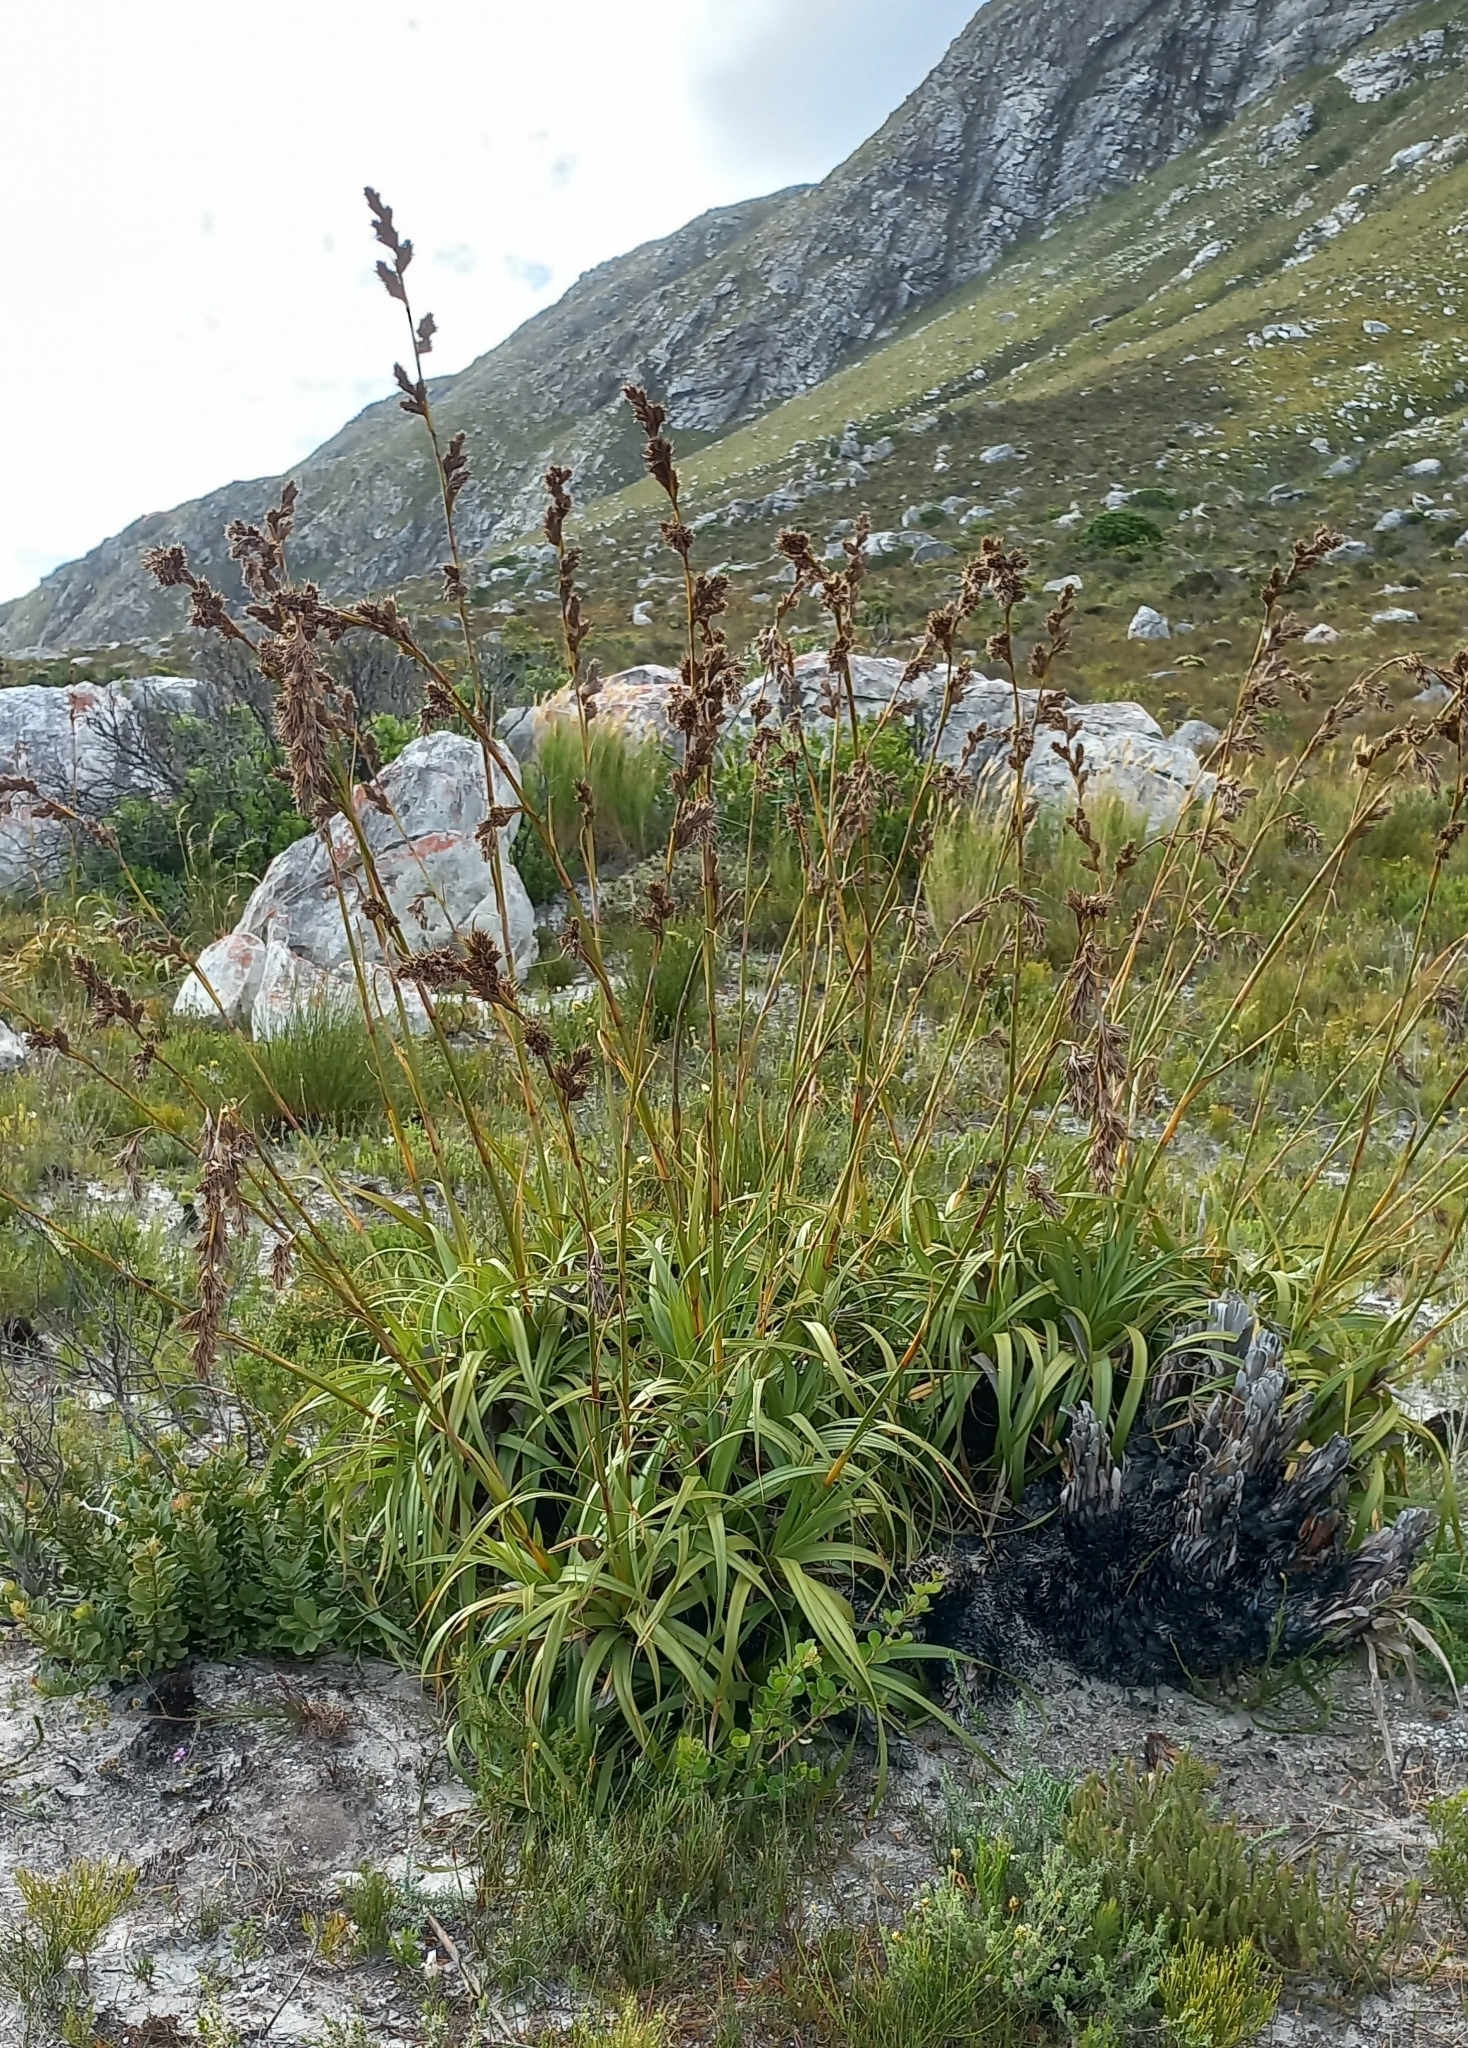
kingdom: Plantae
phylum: Tracheophyta
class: Liliopsida
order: Poales
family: Cyperaceae
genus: Tetraria
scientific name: Tetraria thermalis
